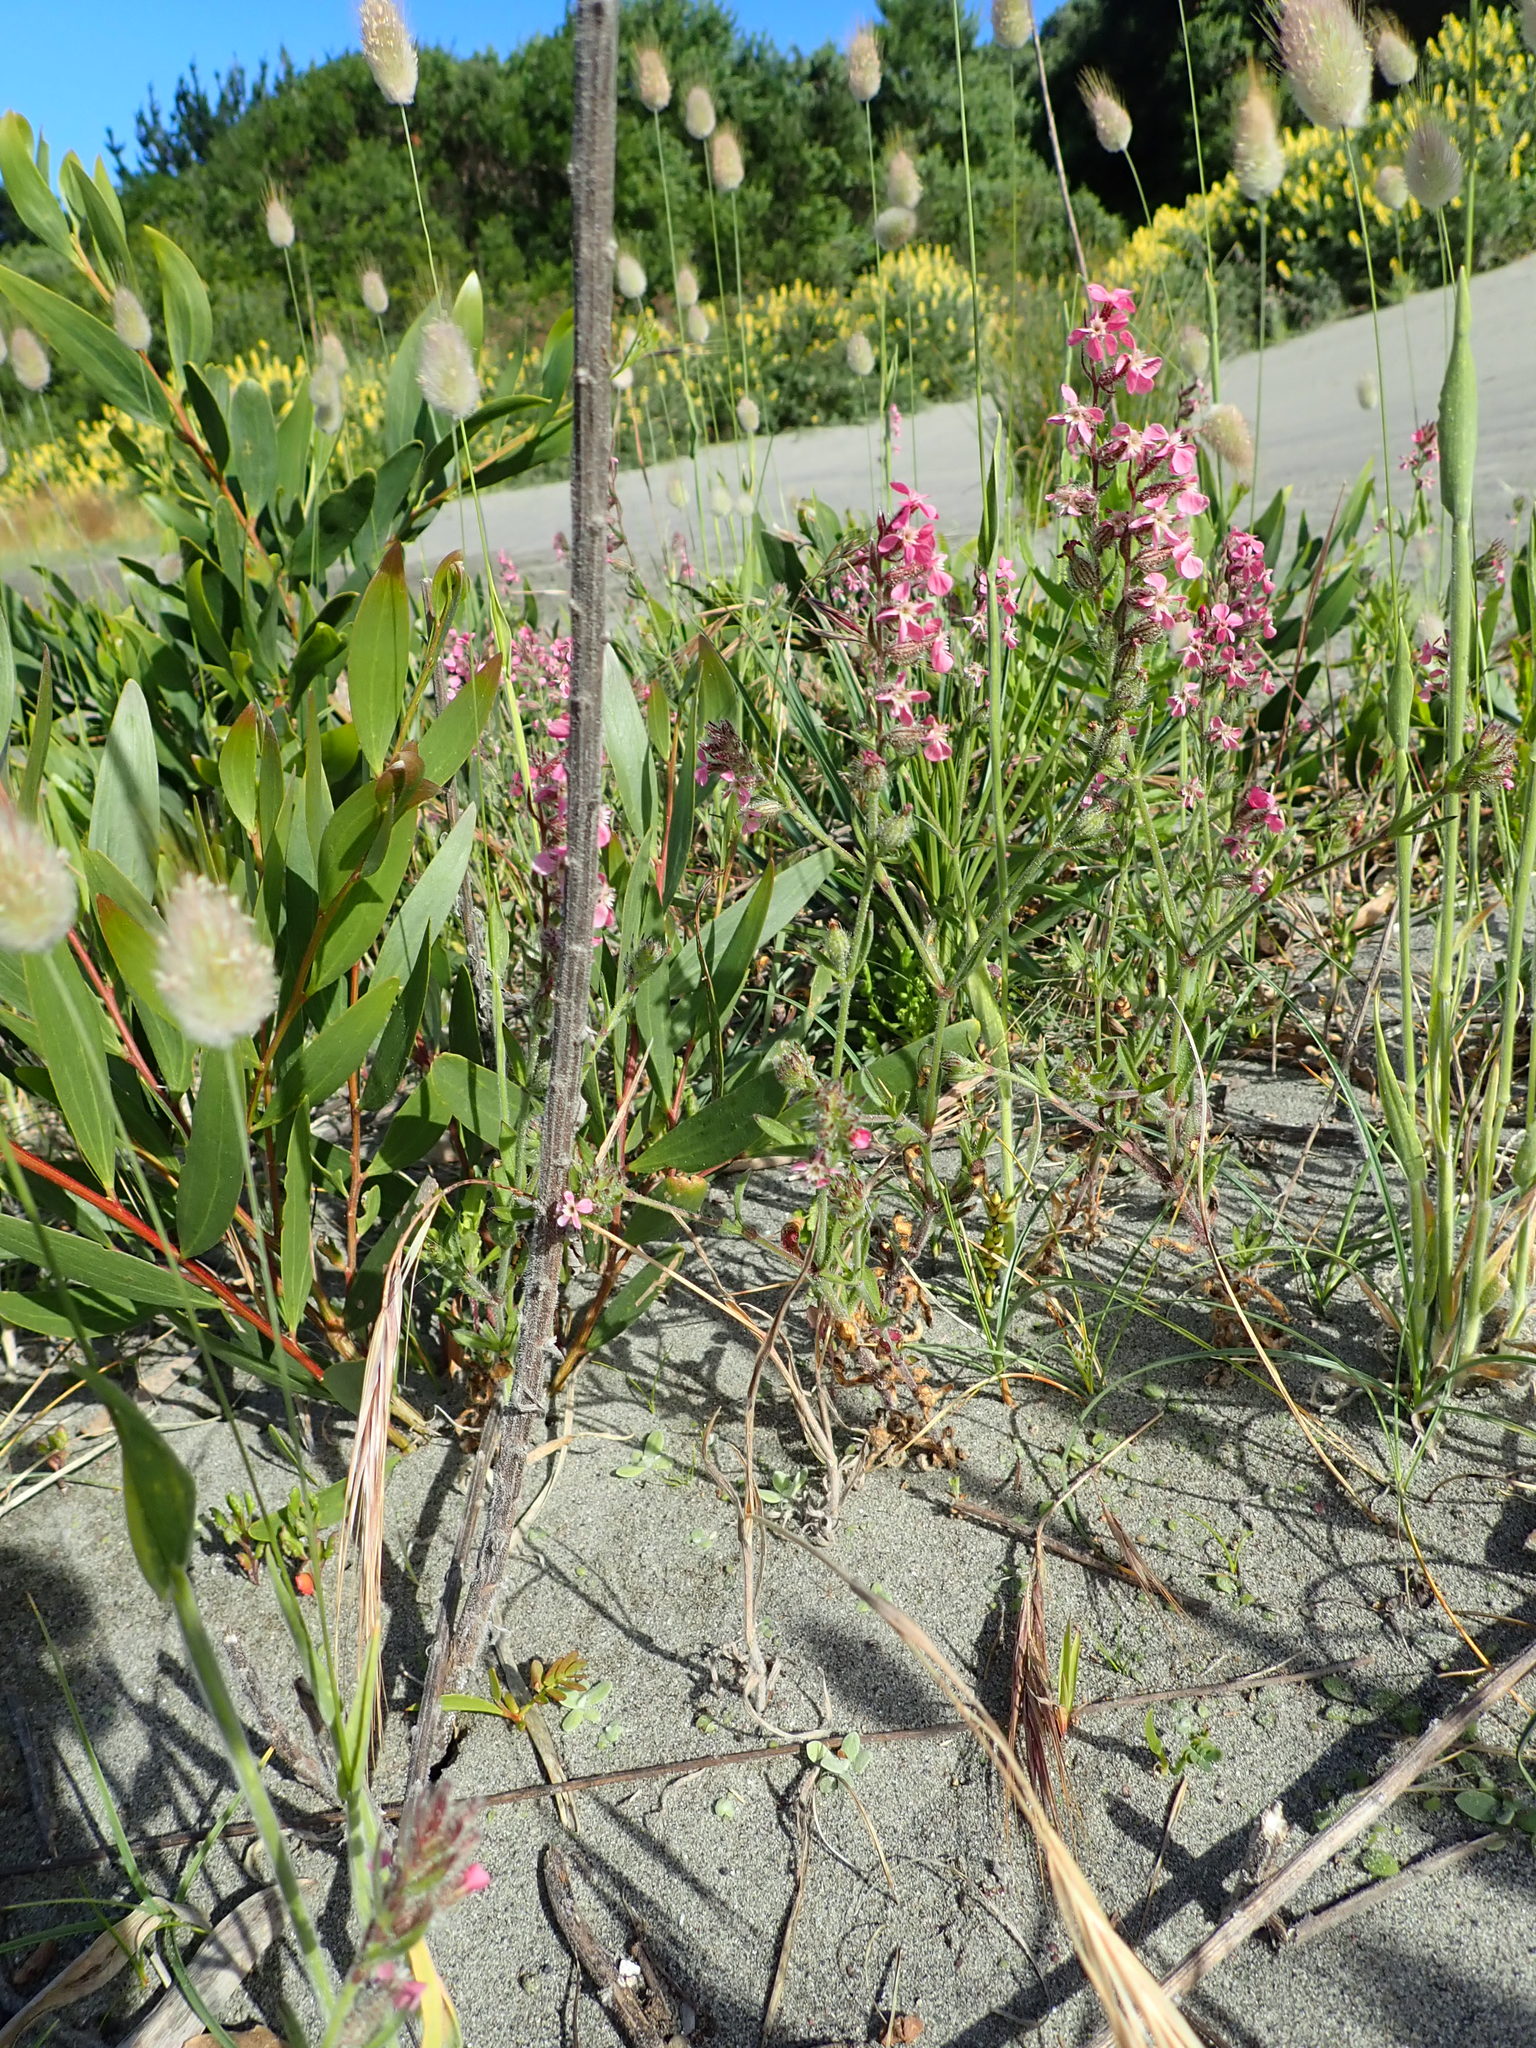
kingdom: Plantae
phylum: Tracheophyta
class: Magnoliopsida
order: Caryophyllales
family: Caryophyllaceae
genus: Silene
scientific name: Silene gallica
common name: Small-flowered catchfly
